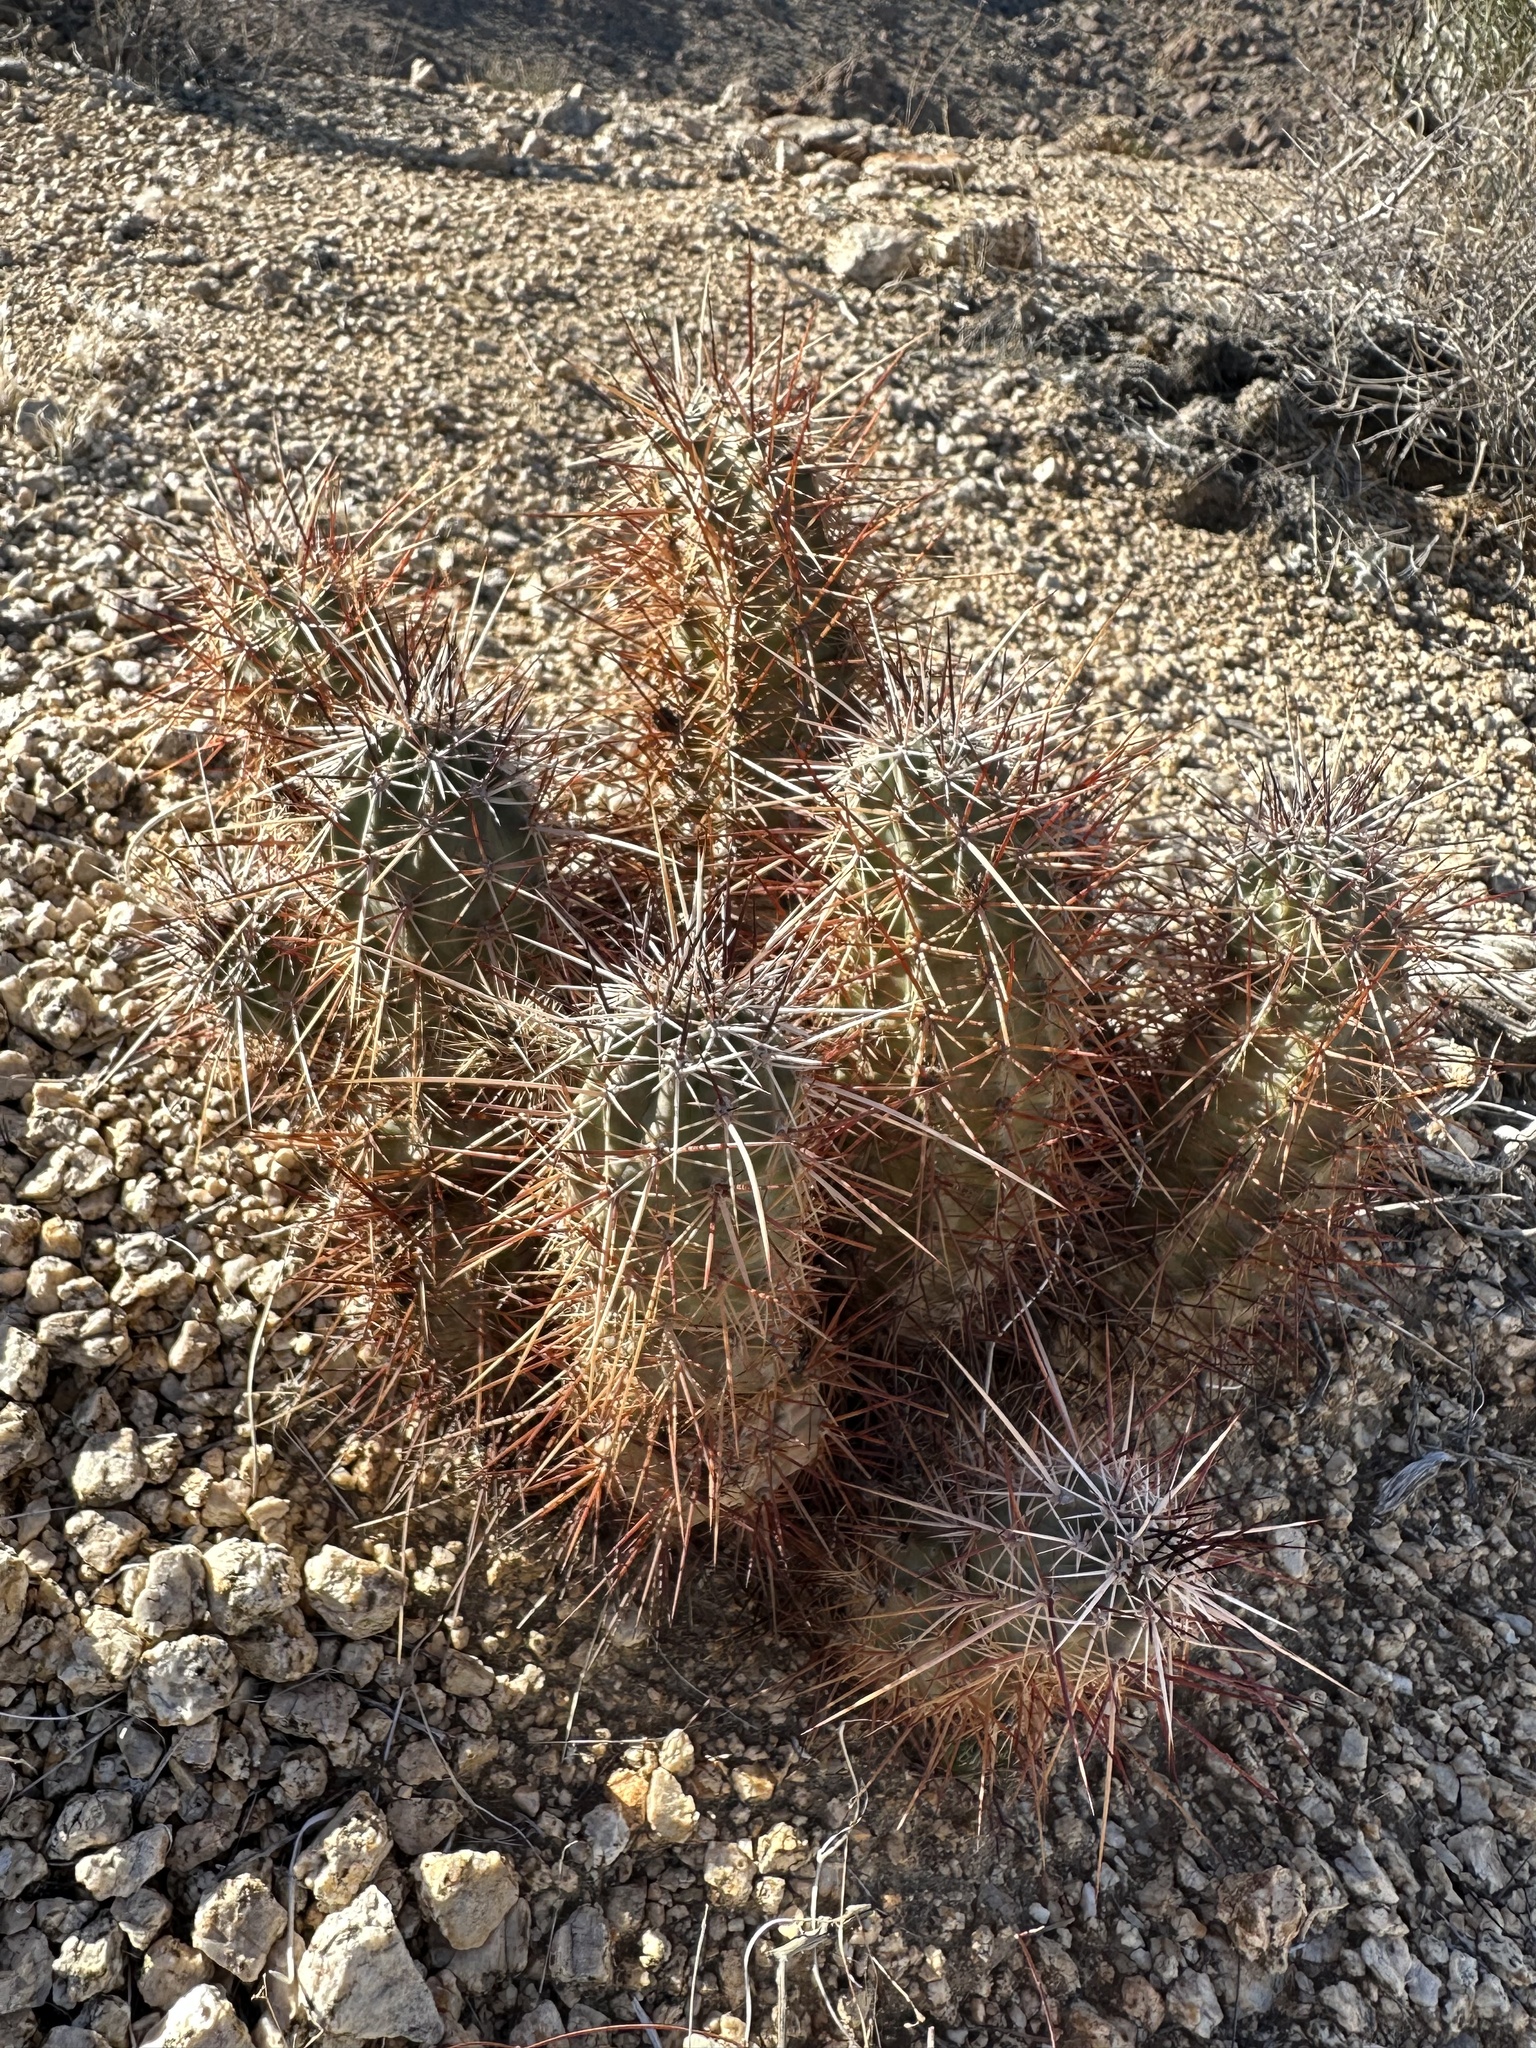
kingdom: Plantae
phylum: Tracheophyta
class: Magnoliopsida
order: Caryophyllales
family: Cactaceae
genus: Echinocereus
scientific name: Echinocereus engelmannii
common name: Engelmann's hedgehog cactus
